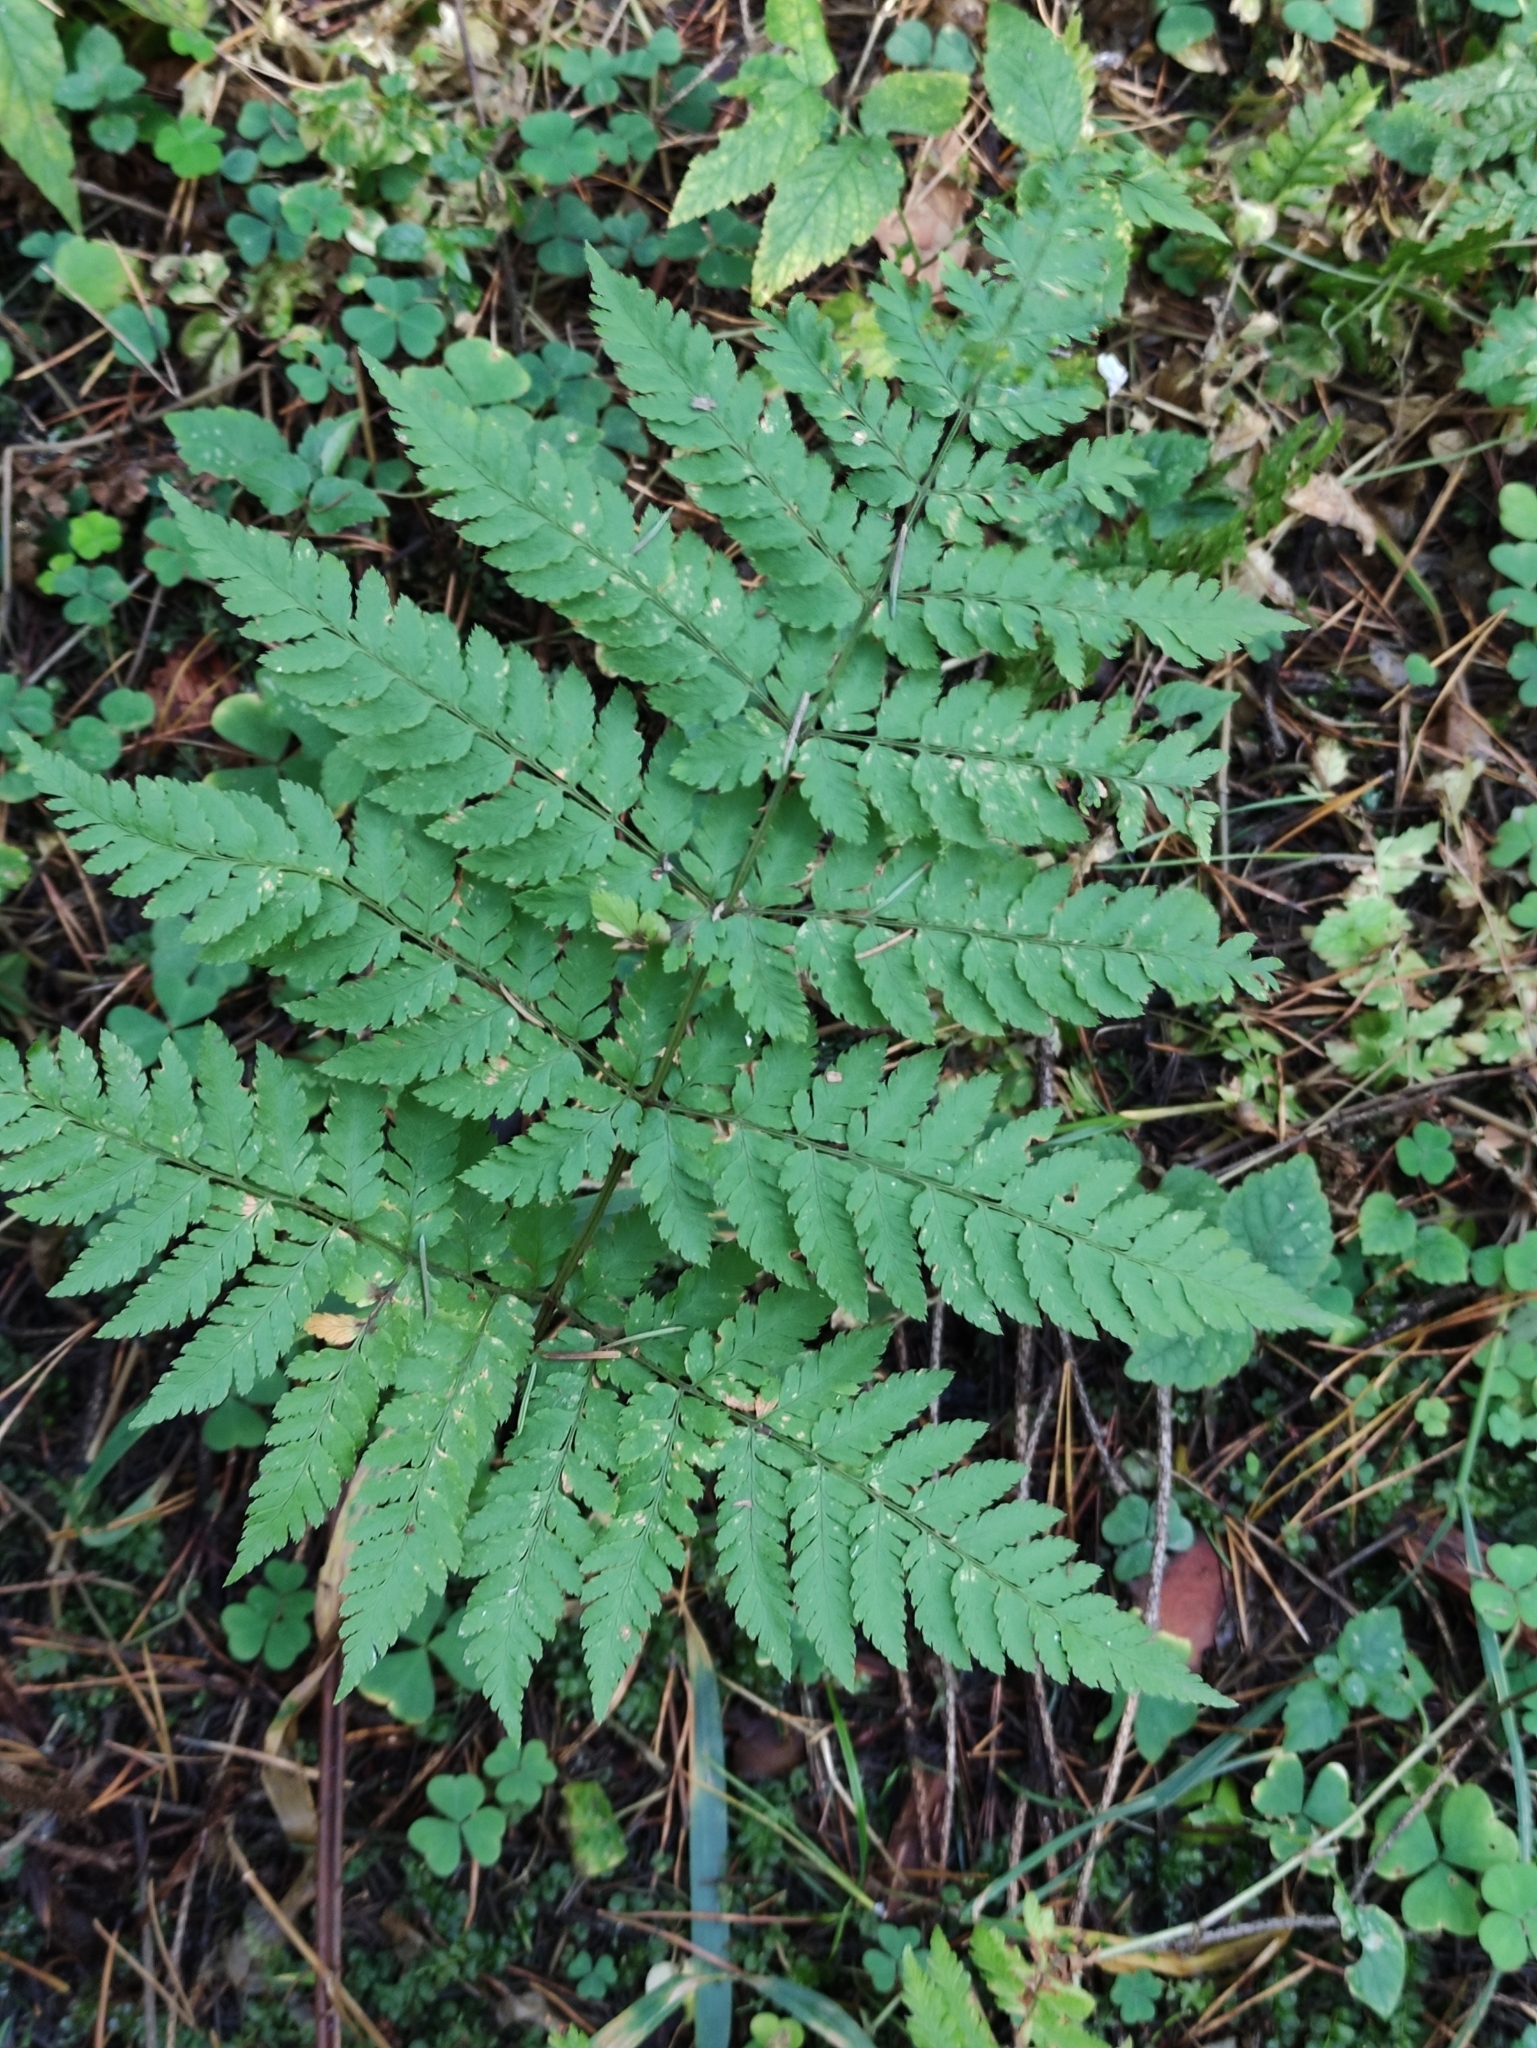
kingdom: Plantae
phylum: Tracheophyta
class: Polypodiopsida
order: Polypodiales
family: Dryopteridaceae
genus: Dryopteris
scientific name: Dryopteris expansa
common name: Northern buckler fern
